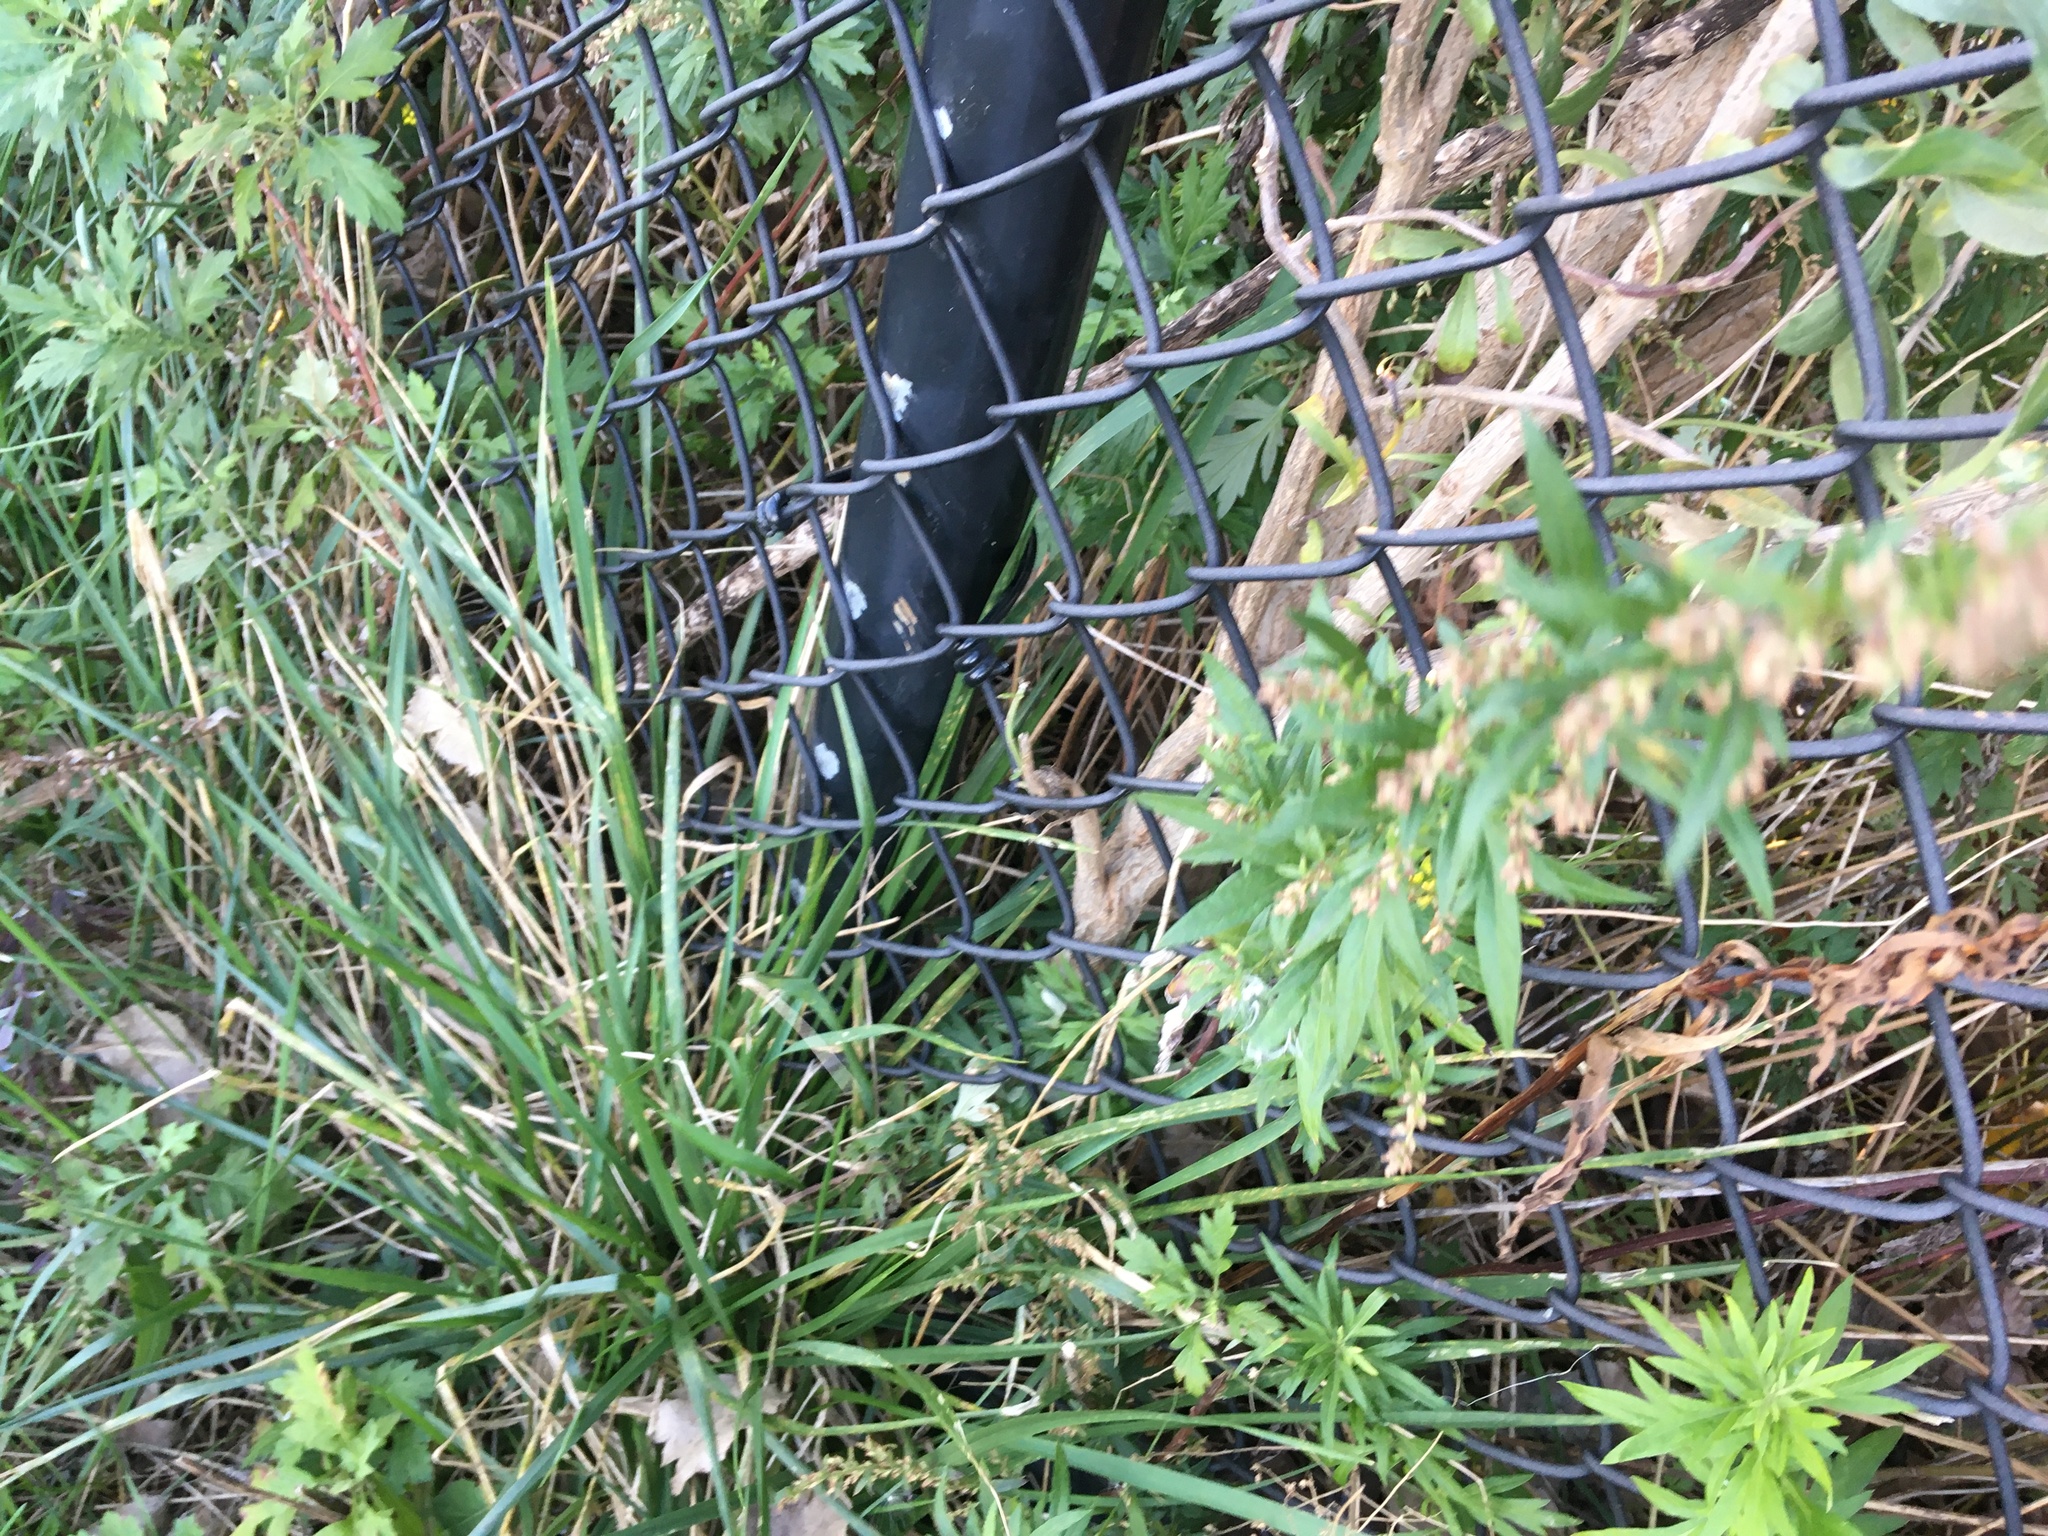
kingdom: Plantae
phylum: Tracheophyta
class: Magnoliopsida
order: Asterales
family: Asteraceae
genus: Artemisia
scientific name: Artemisia vulgaris
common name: Mugwort
